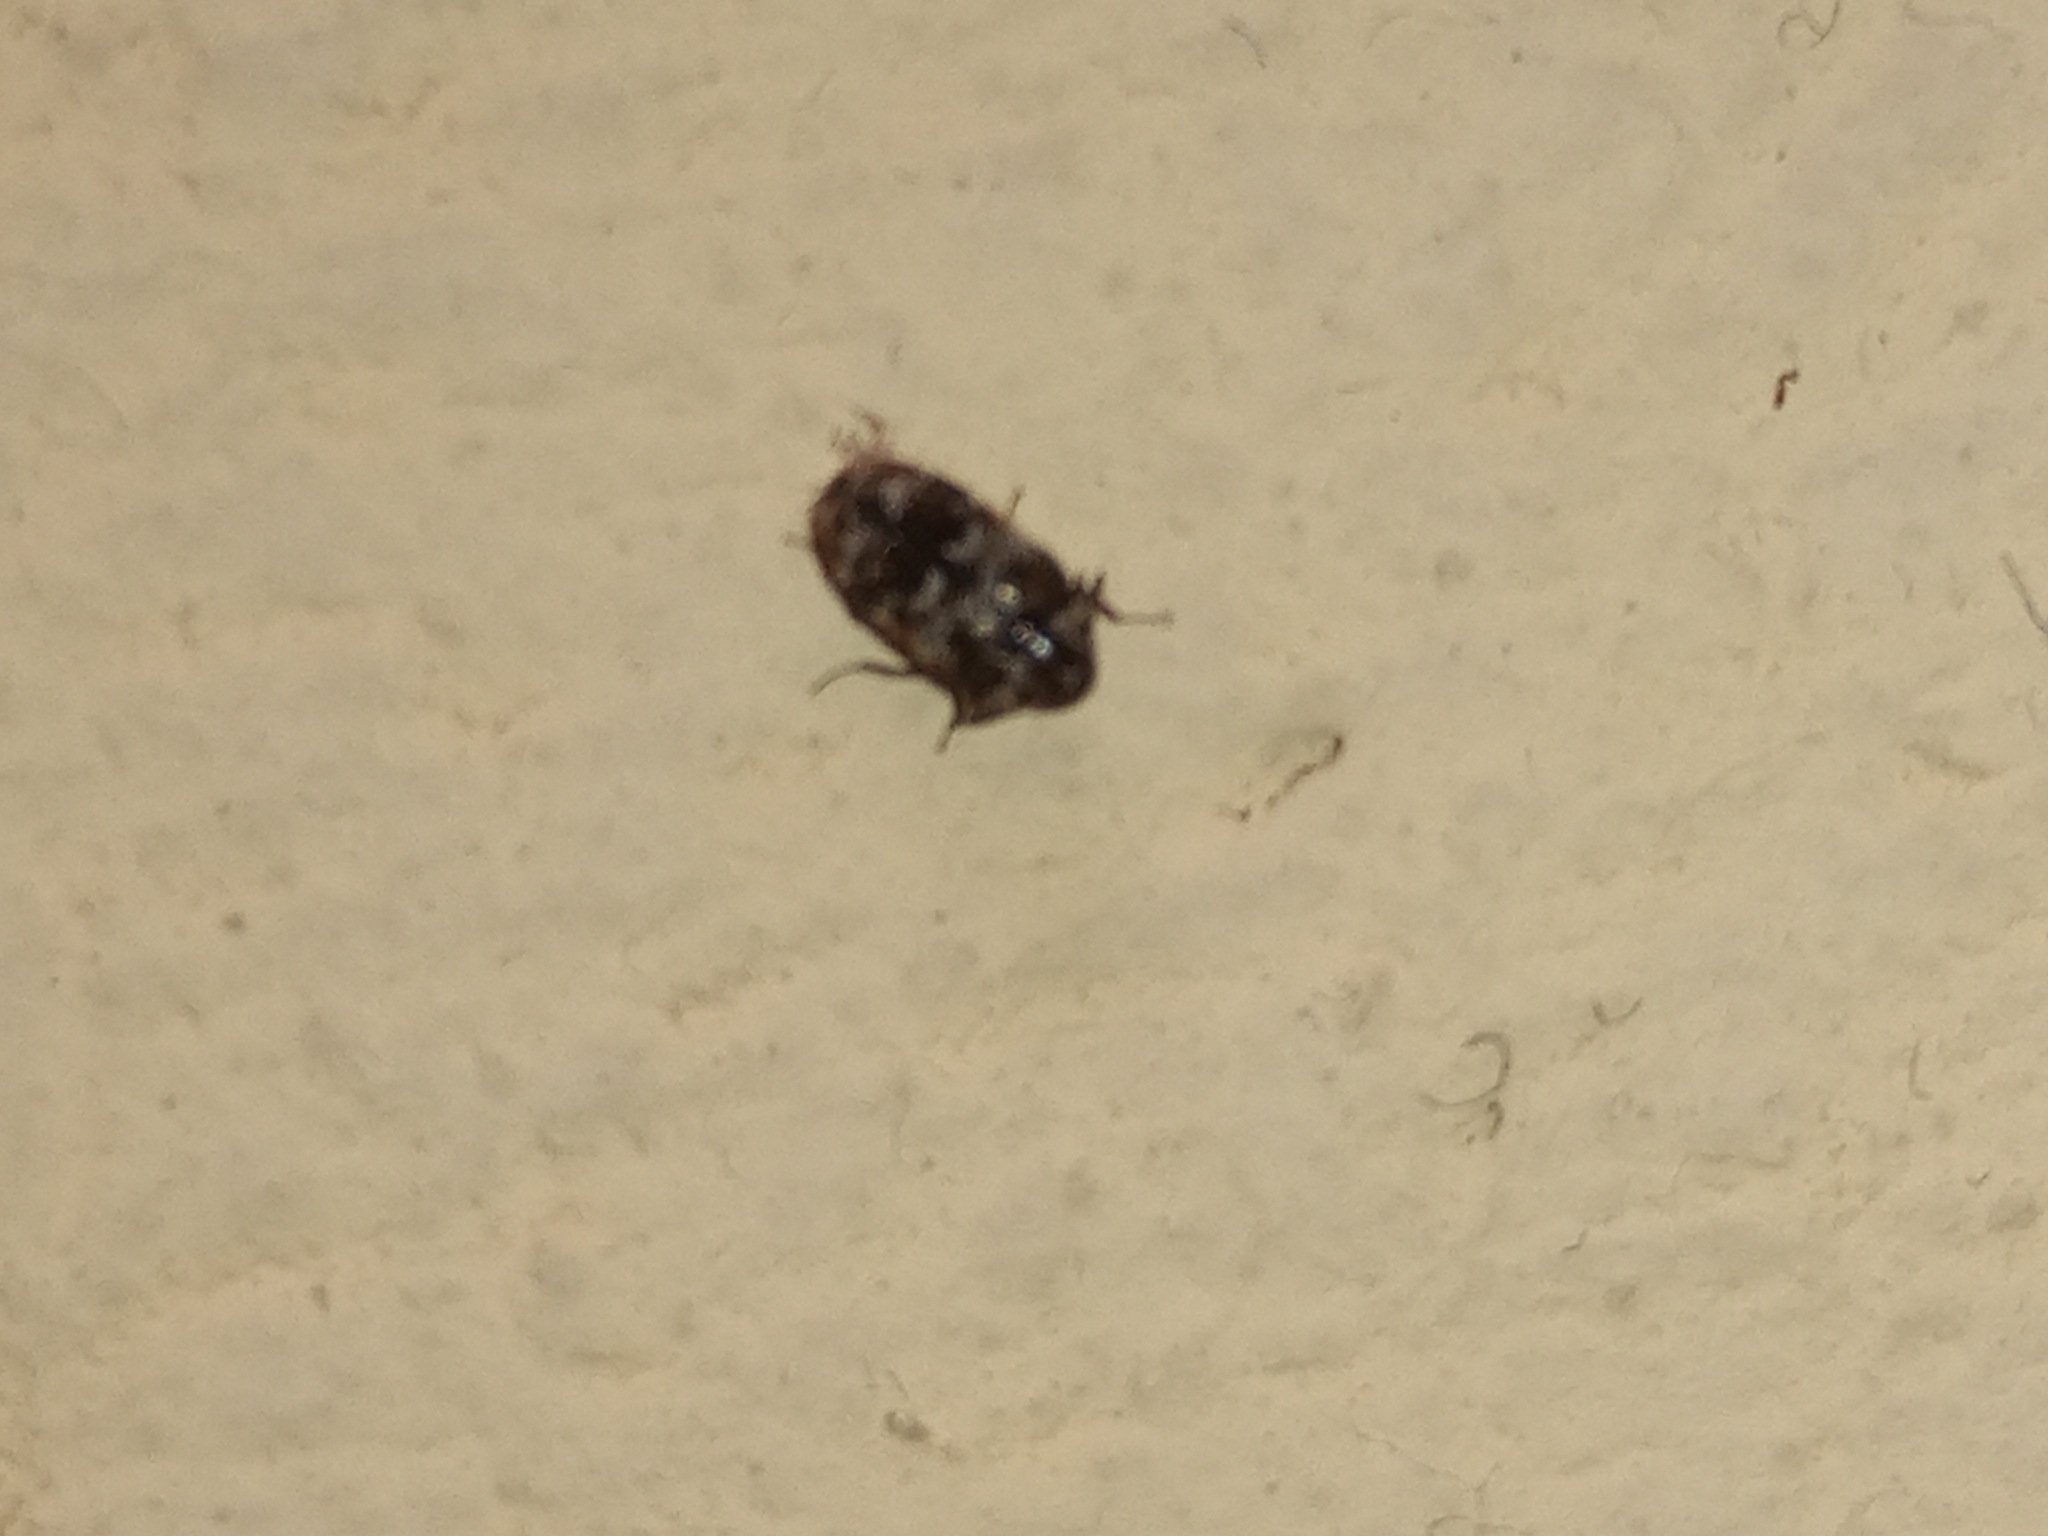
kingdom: Animalia
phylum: Arthropoda
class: Insecta
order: Coleoptera
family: Dermestidae
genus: Trogoderma
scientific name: Trogoderma sternale
